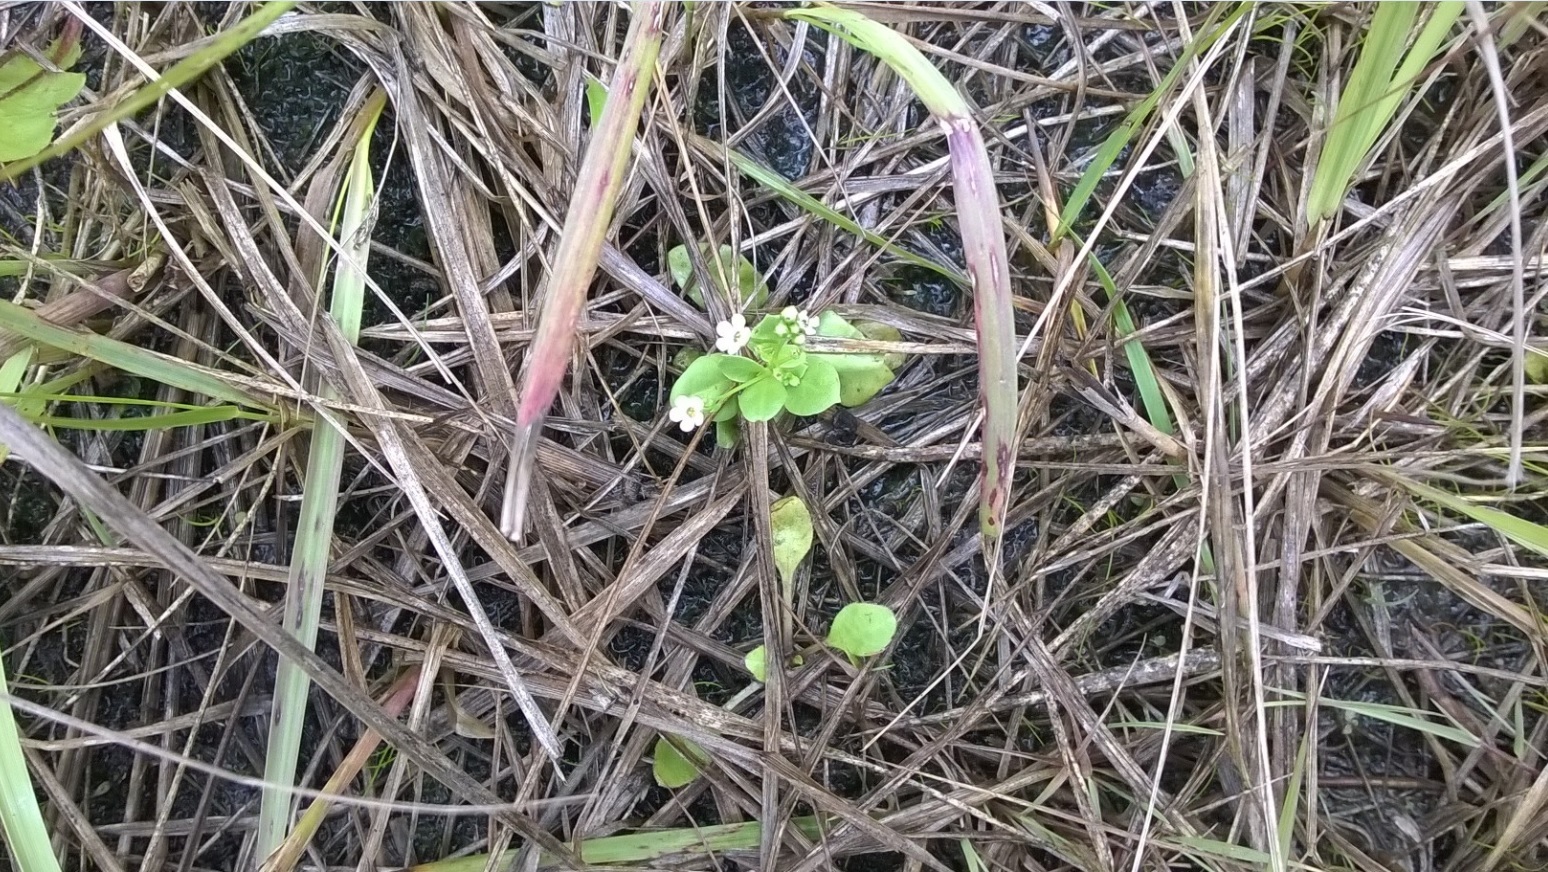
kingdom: Plantae
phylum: Tracheophyta
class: Magnoliopsida
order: Ericales
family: Primulaceae
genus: Samolus
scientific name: Samolus valerandi
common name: Brookweed
